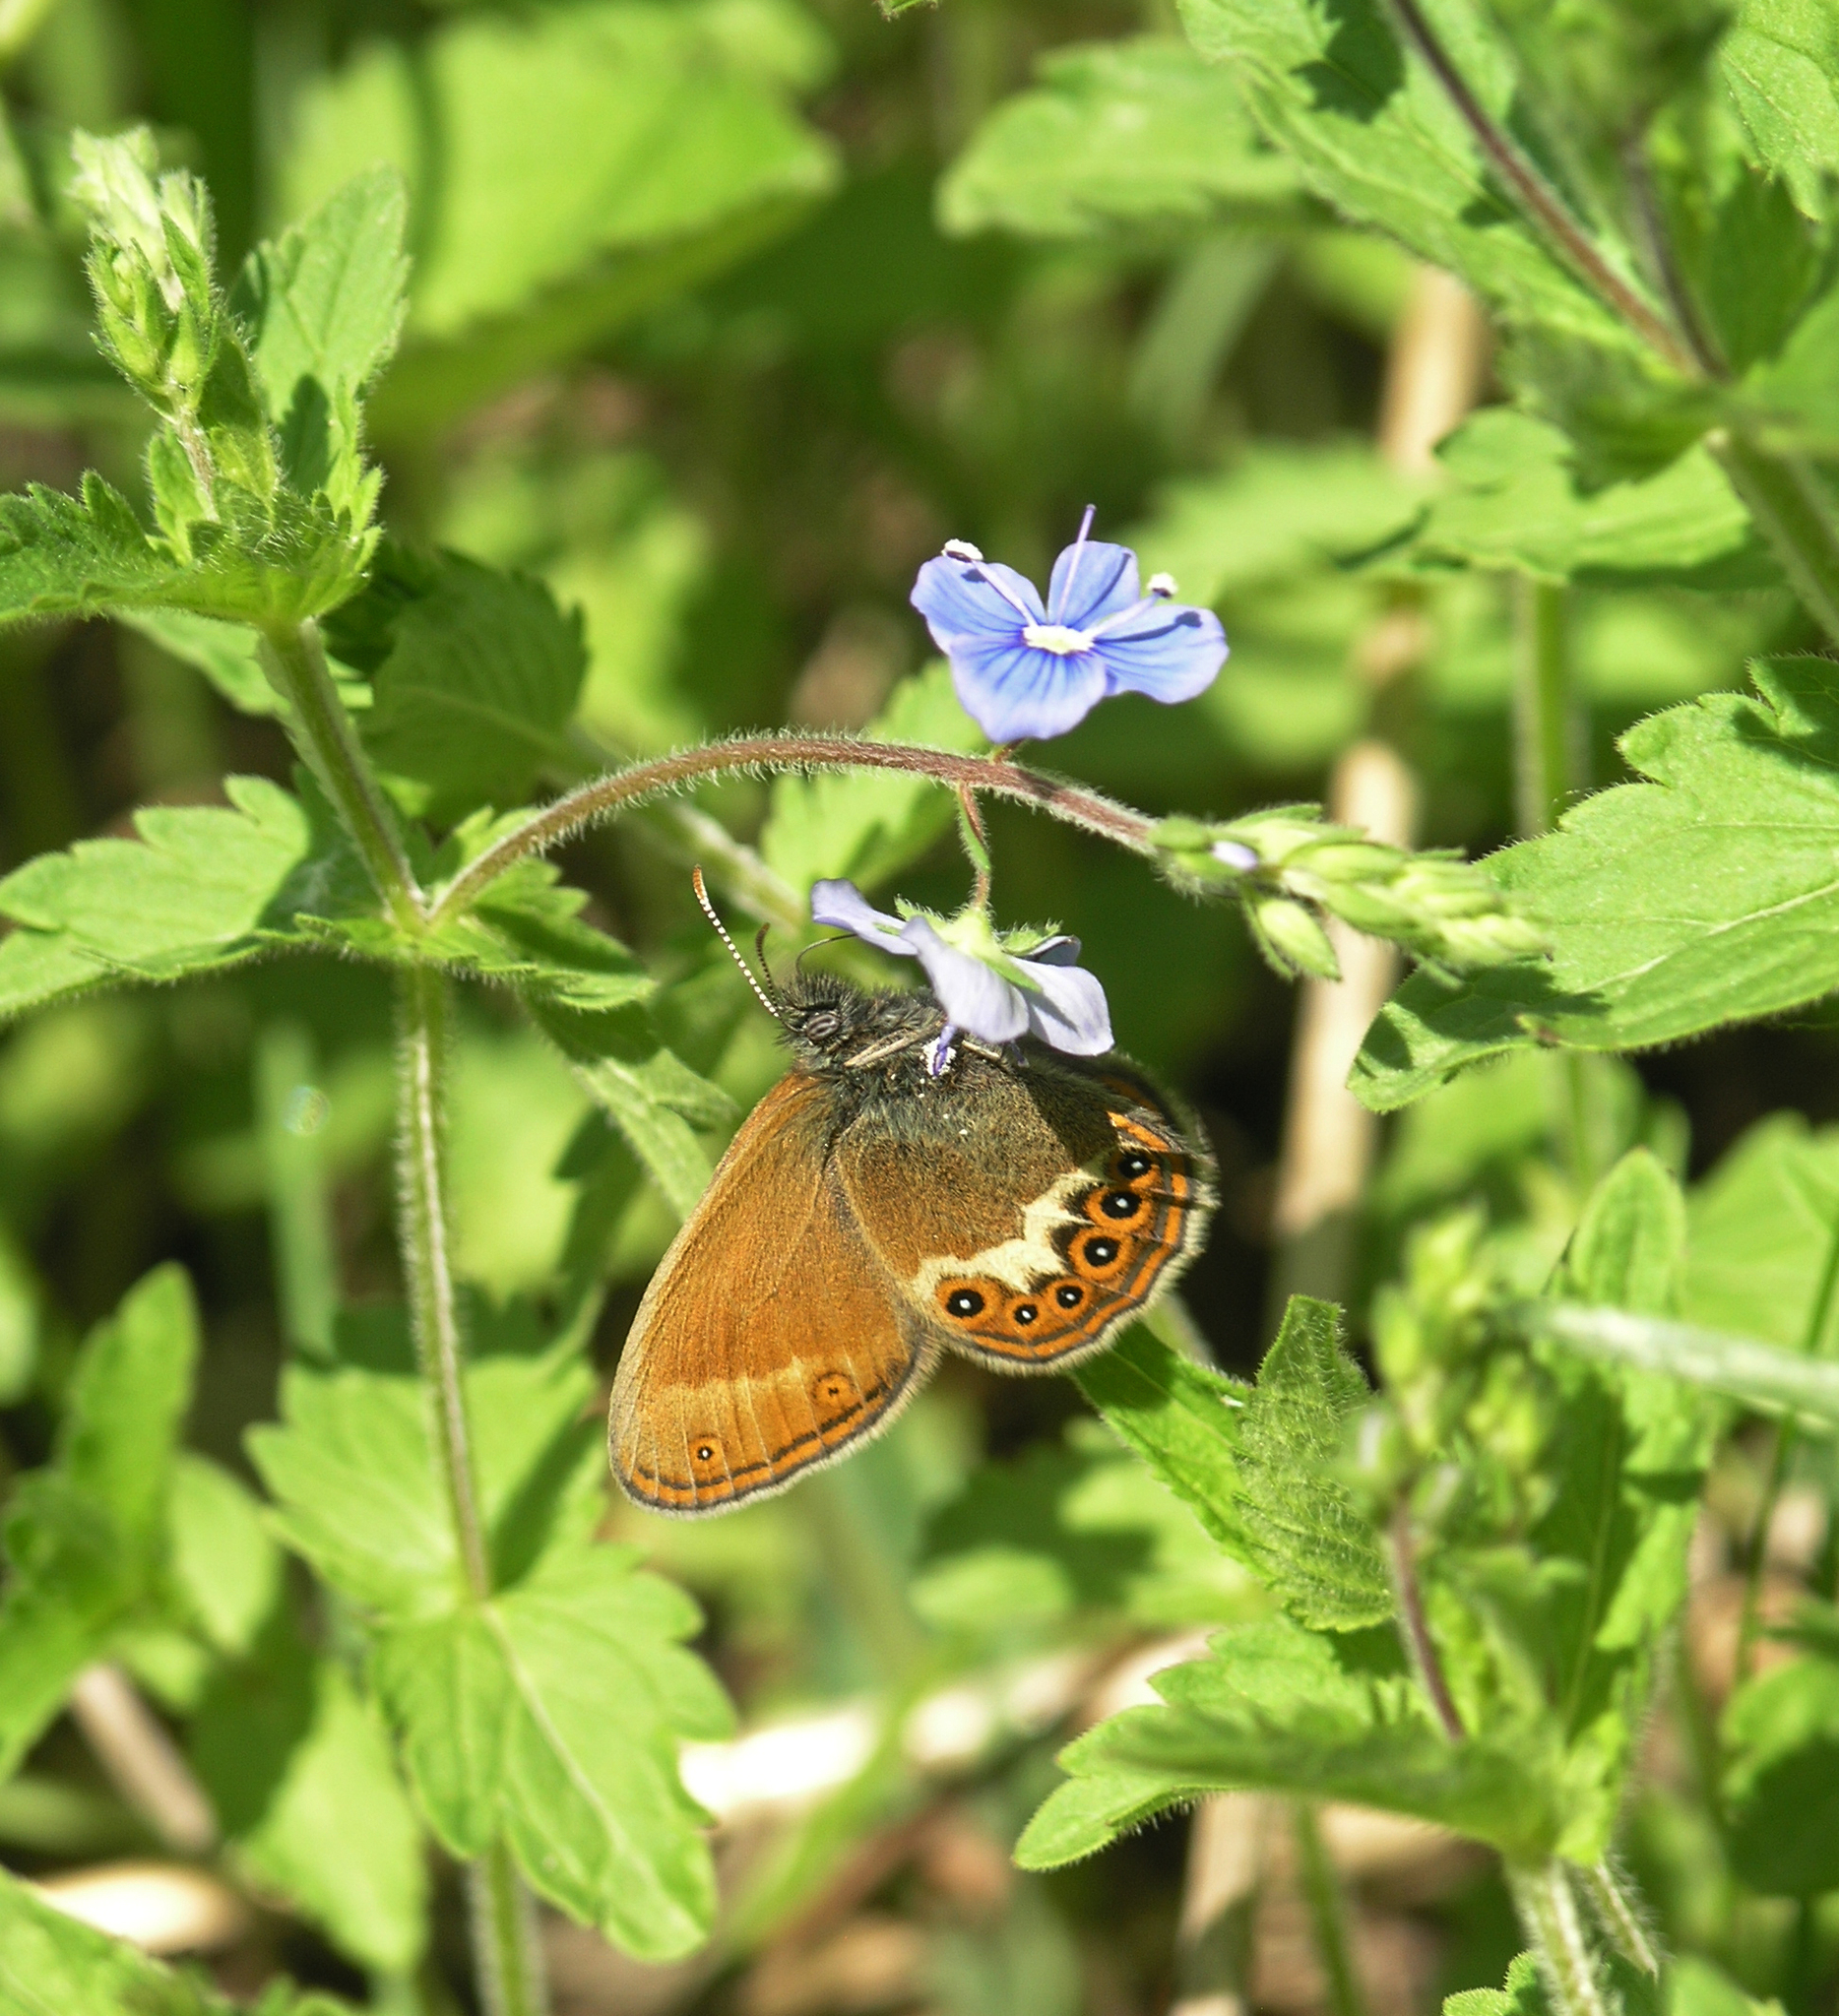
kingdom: Plantae
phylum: Tracheophyta
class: Magnoliopsida
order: Lamiales
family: Plantaginaceae
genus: Veronica
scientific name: Veronica chamaedrys
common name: Germander speedwell
